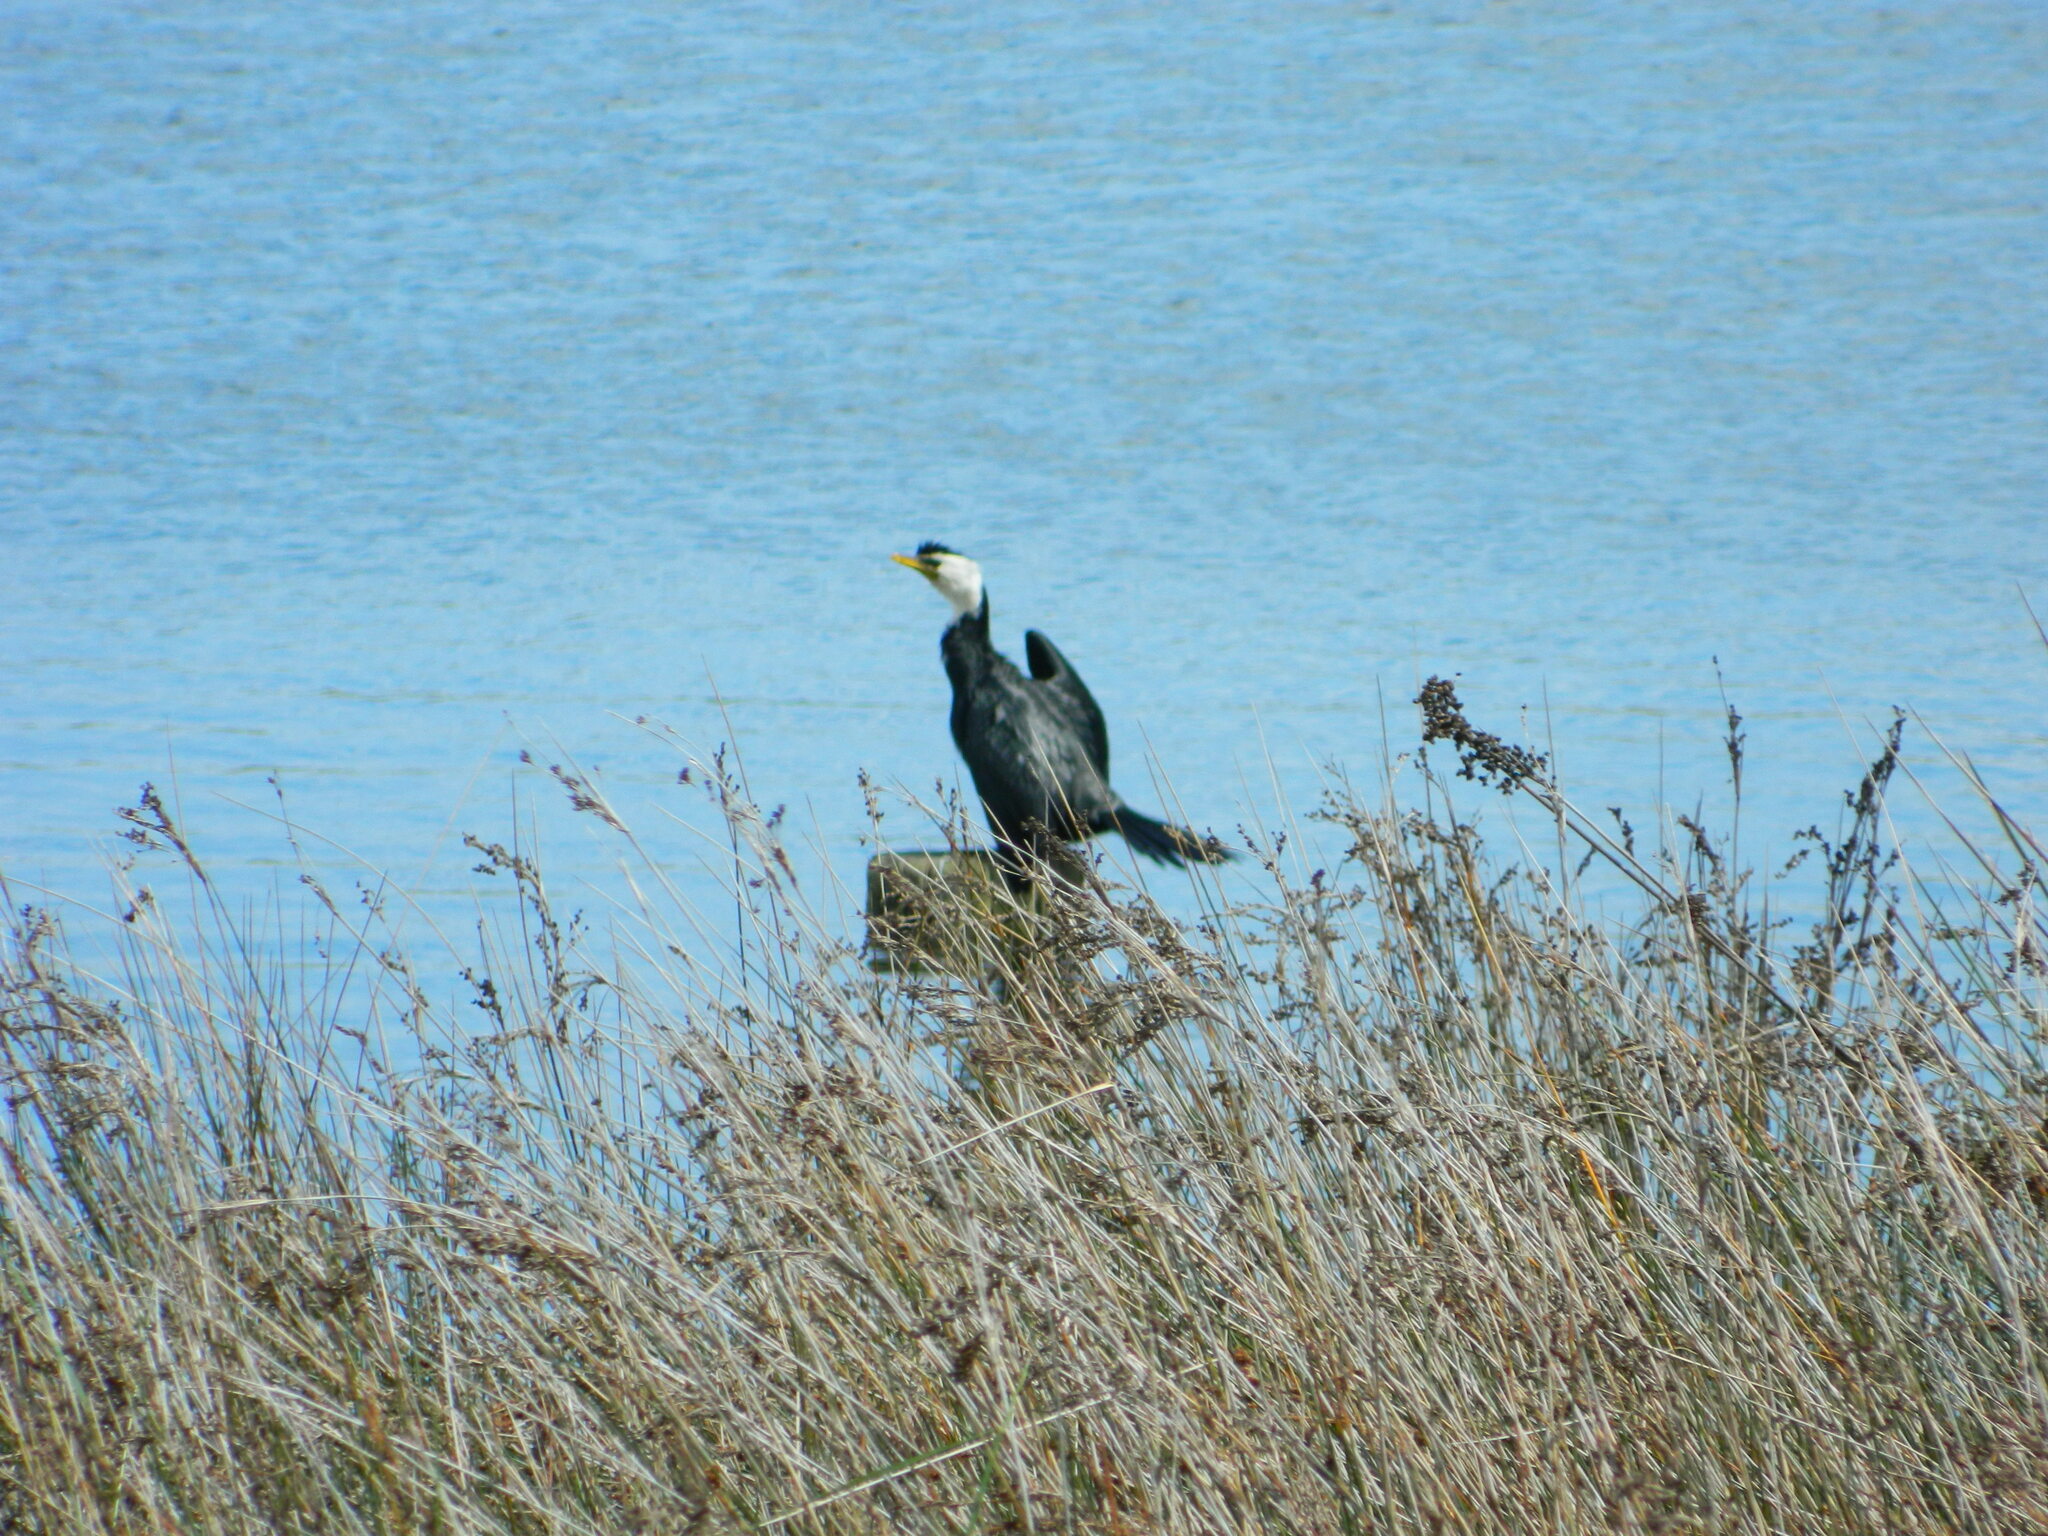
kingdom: Animalia
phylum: Chordata
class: Aves
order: Suliformes
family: Phalacrocoracidae
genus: Microcarbo
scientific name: Microcarbo melanoleucos
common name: Little pied cormorant
